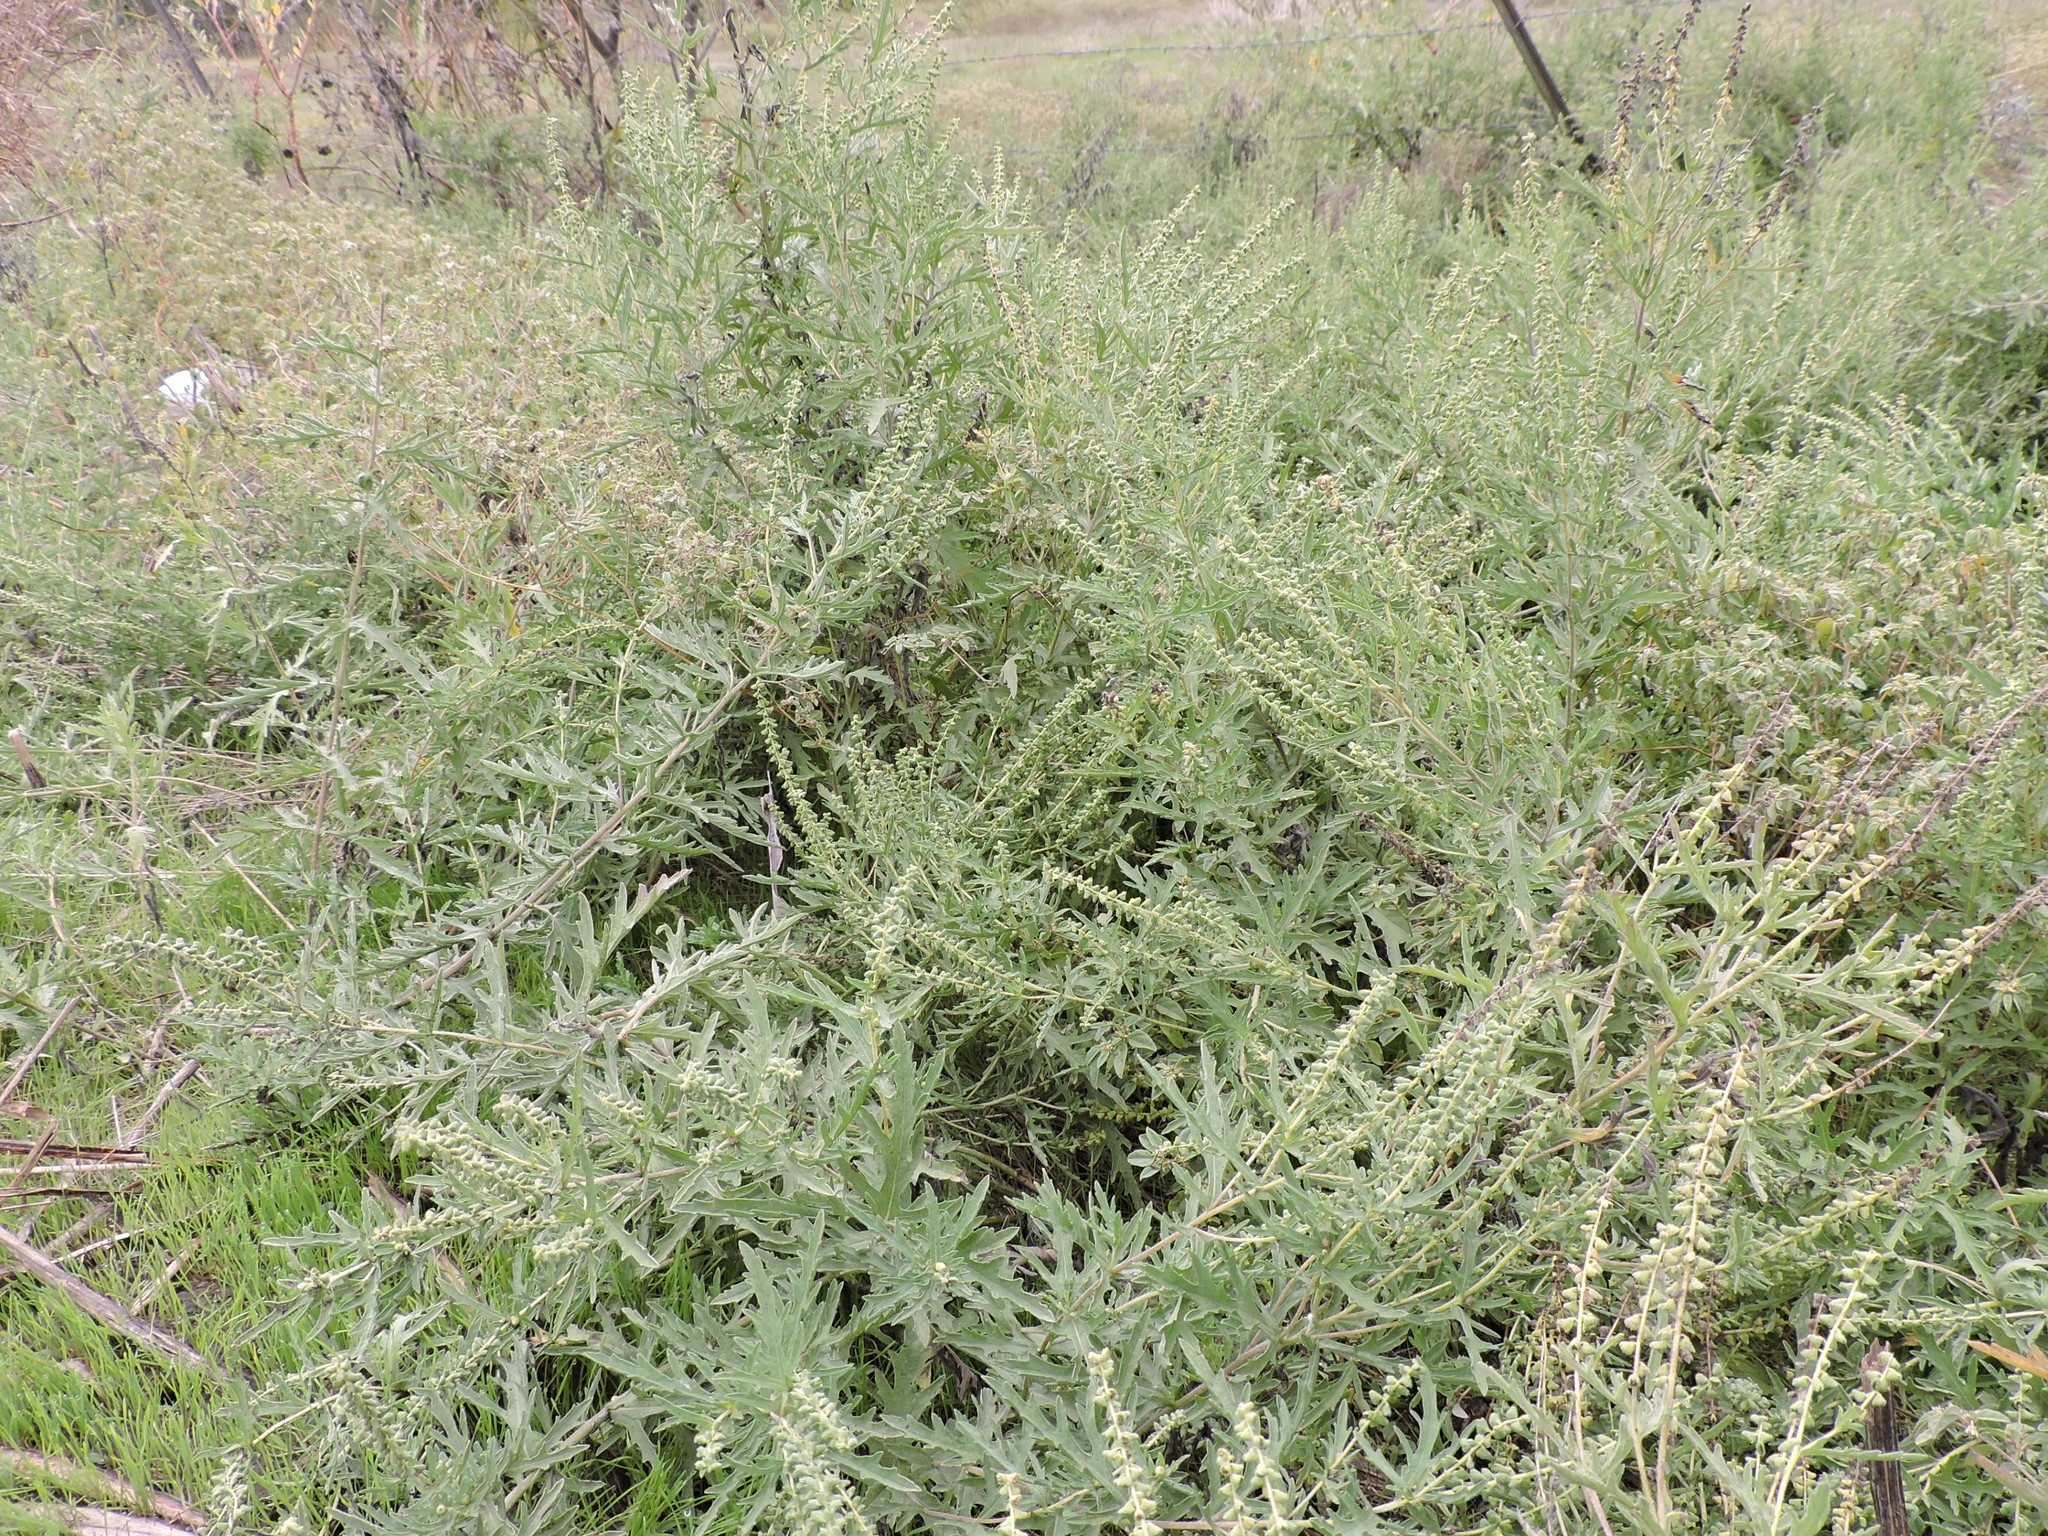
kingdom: Plantae
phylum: Tracheophyta
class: Magnoliopsida
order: Asterales
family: Asteraceae
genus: Ambrosia
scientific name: Ambrosia psilostachya
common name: Perennial ragweed
